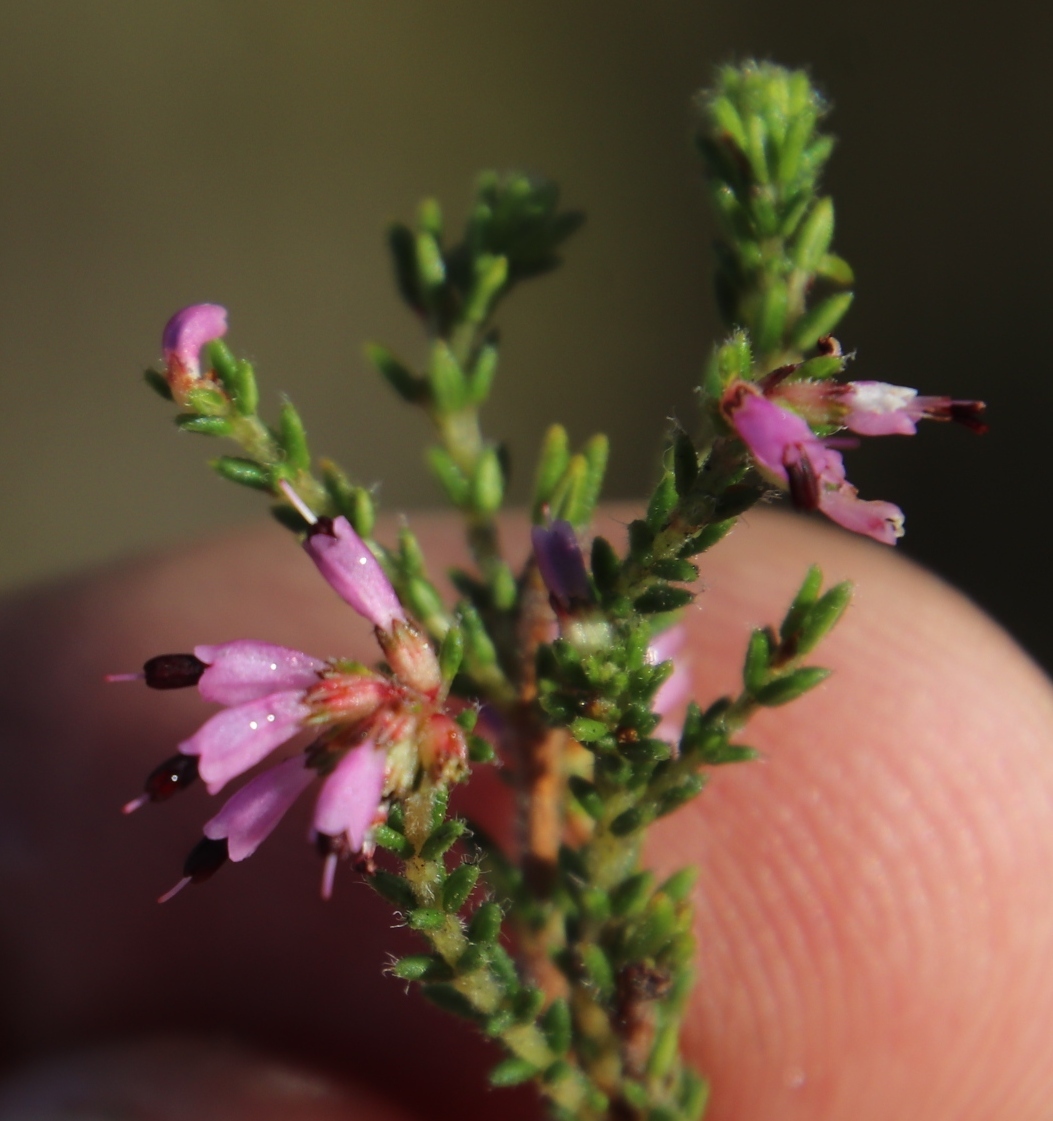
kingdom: Plantae
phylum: Tracheophyta
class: Magnoliopsida
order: Ericales
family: Ericaceae
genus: Erica
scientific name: Erica glabella
